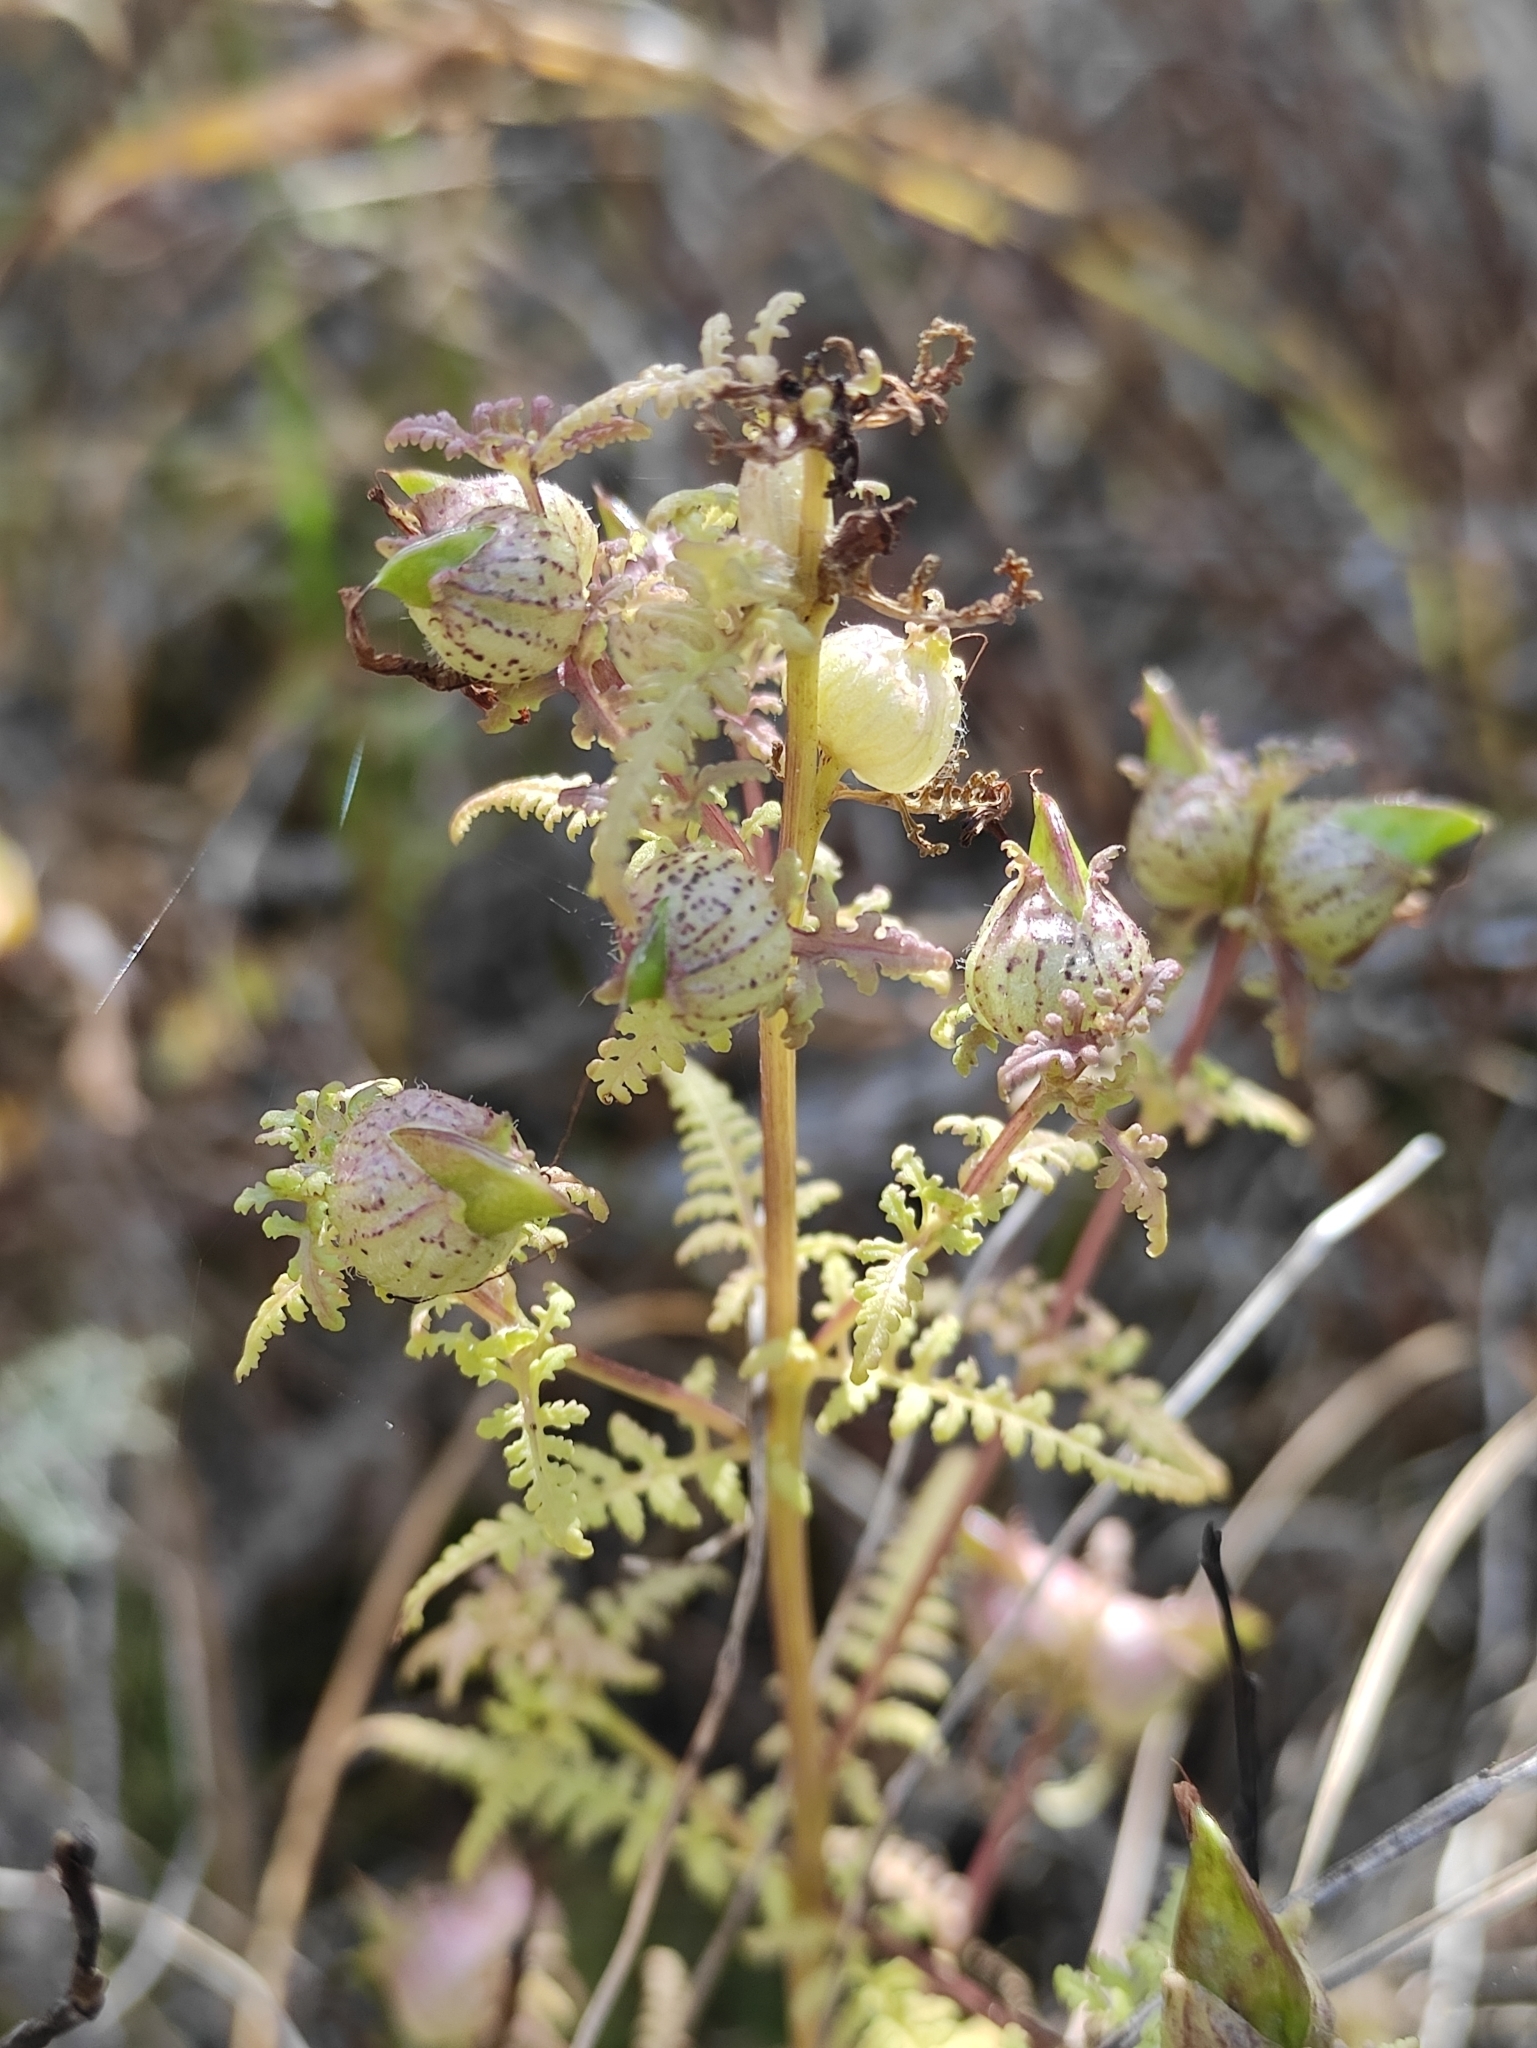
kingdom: Plantae
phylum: Tracheophyta
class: Magnoliopsida
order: Lamiales
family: Orobanchaceae
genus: Pedicularis
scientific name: Pedicularis myriophylla
